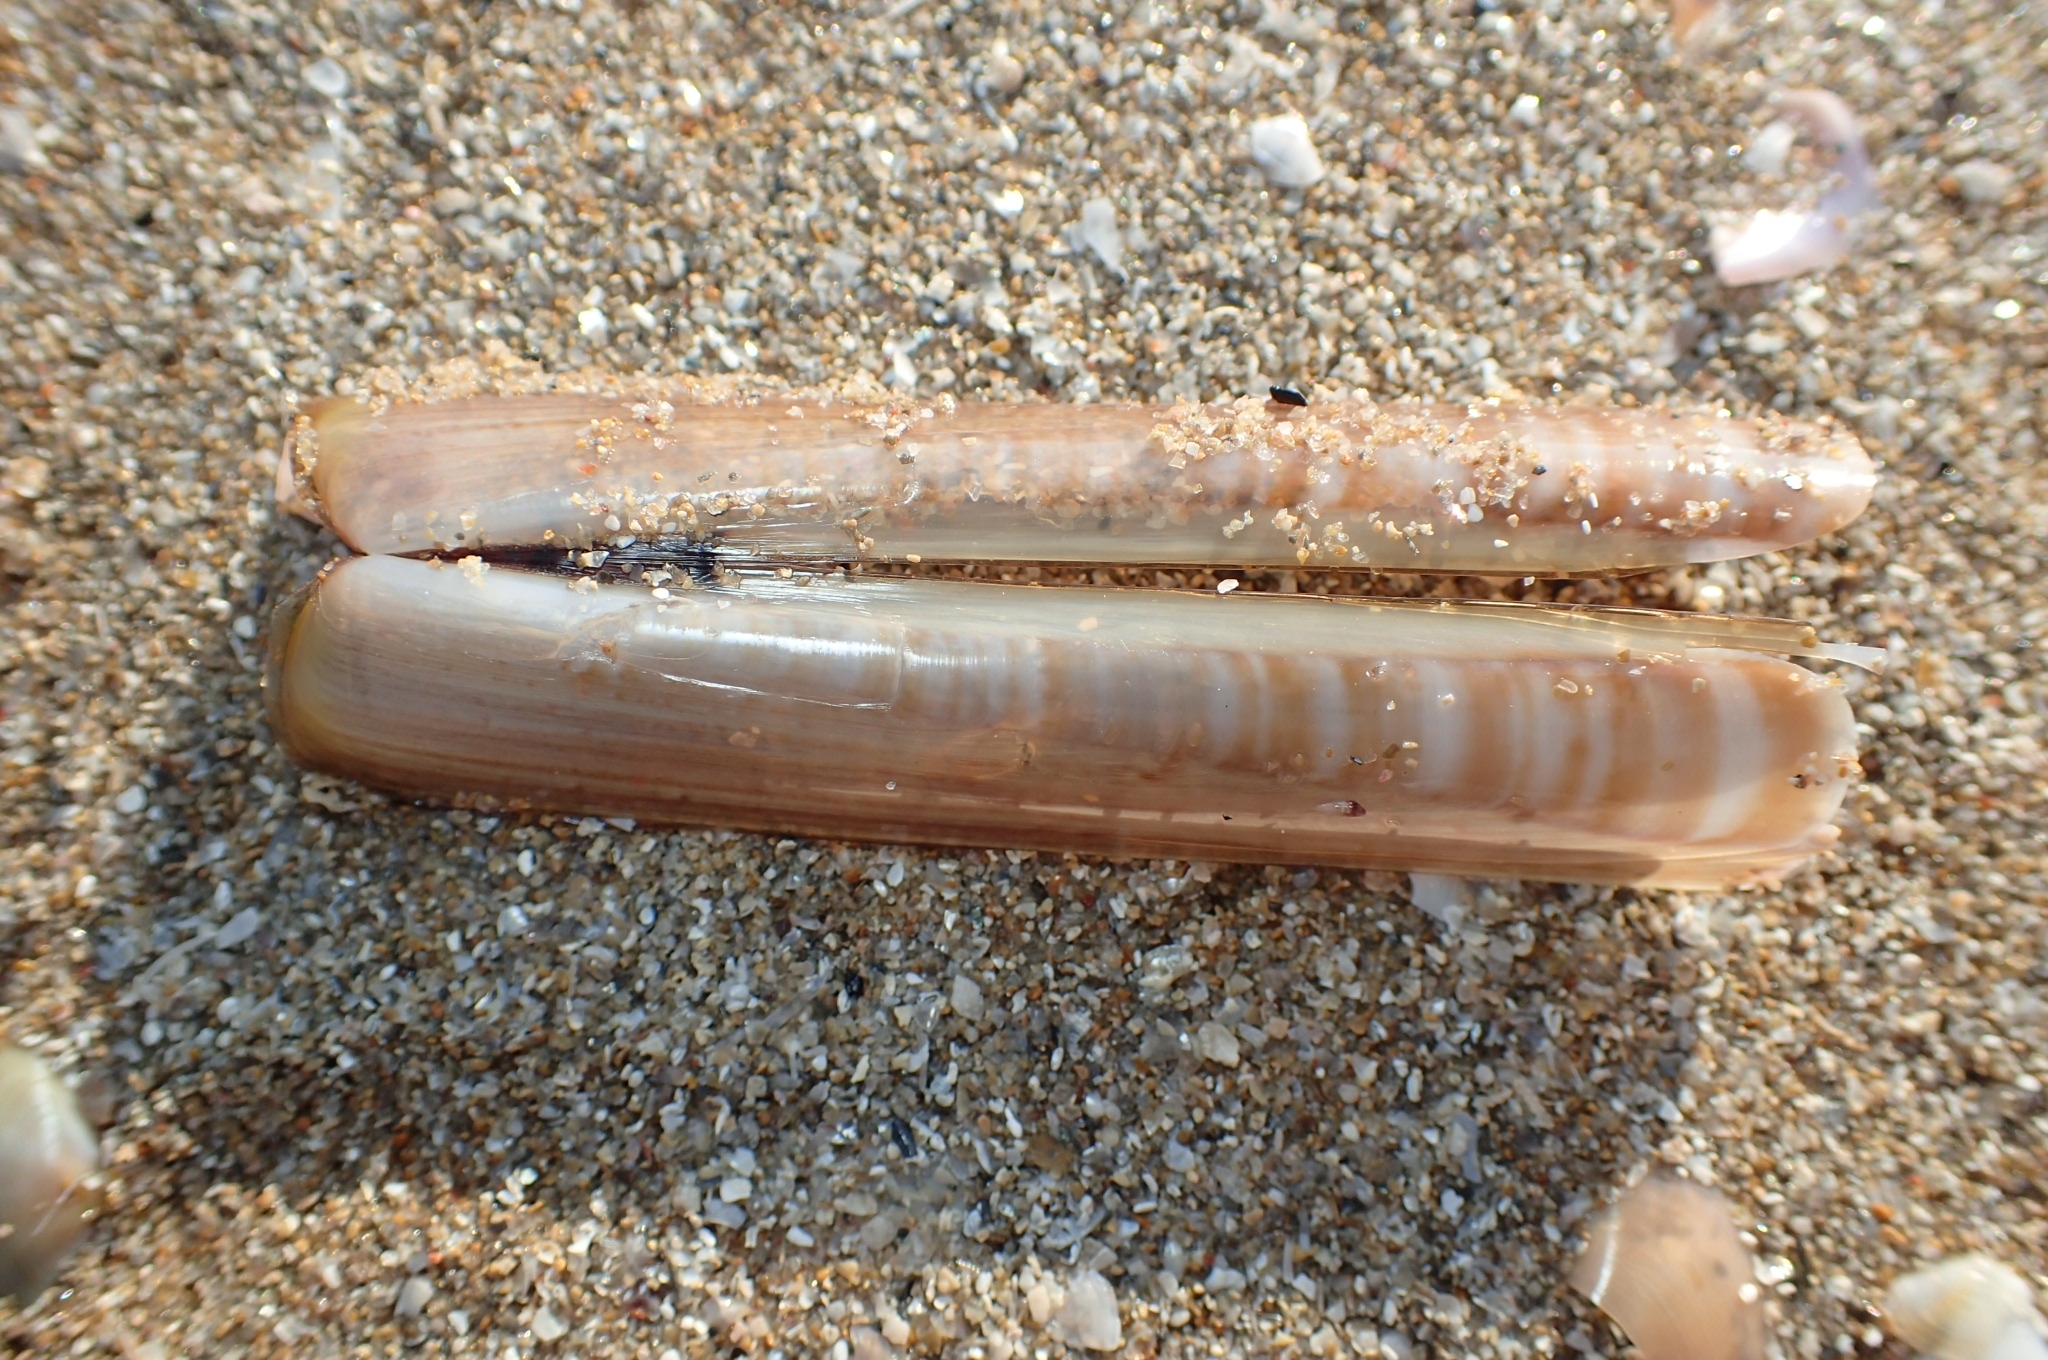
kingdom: Animalia
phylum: Mollusca
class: Bivalvia
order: Adapedonta
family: Pharidae
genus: Ensis
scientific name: Ensis minor
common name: Minor jackknife clam
